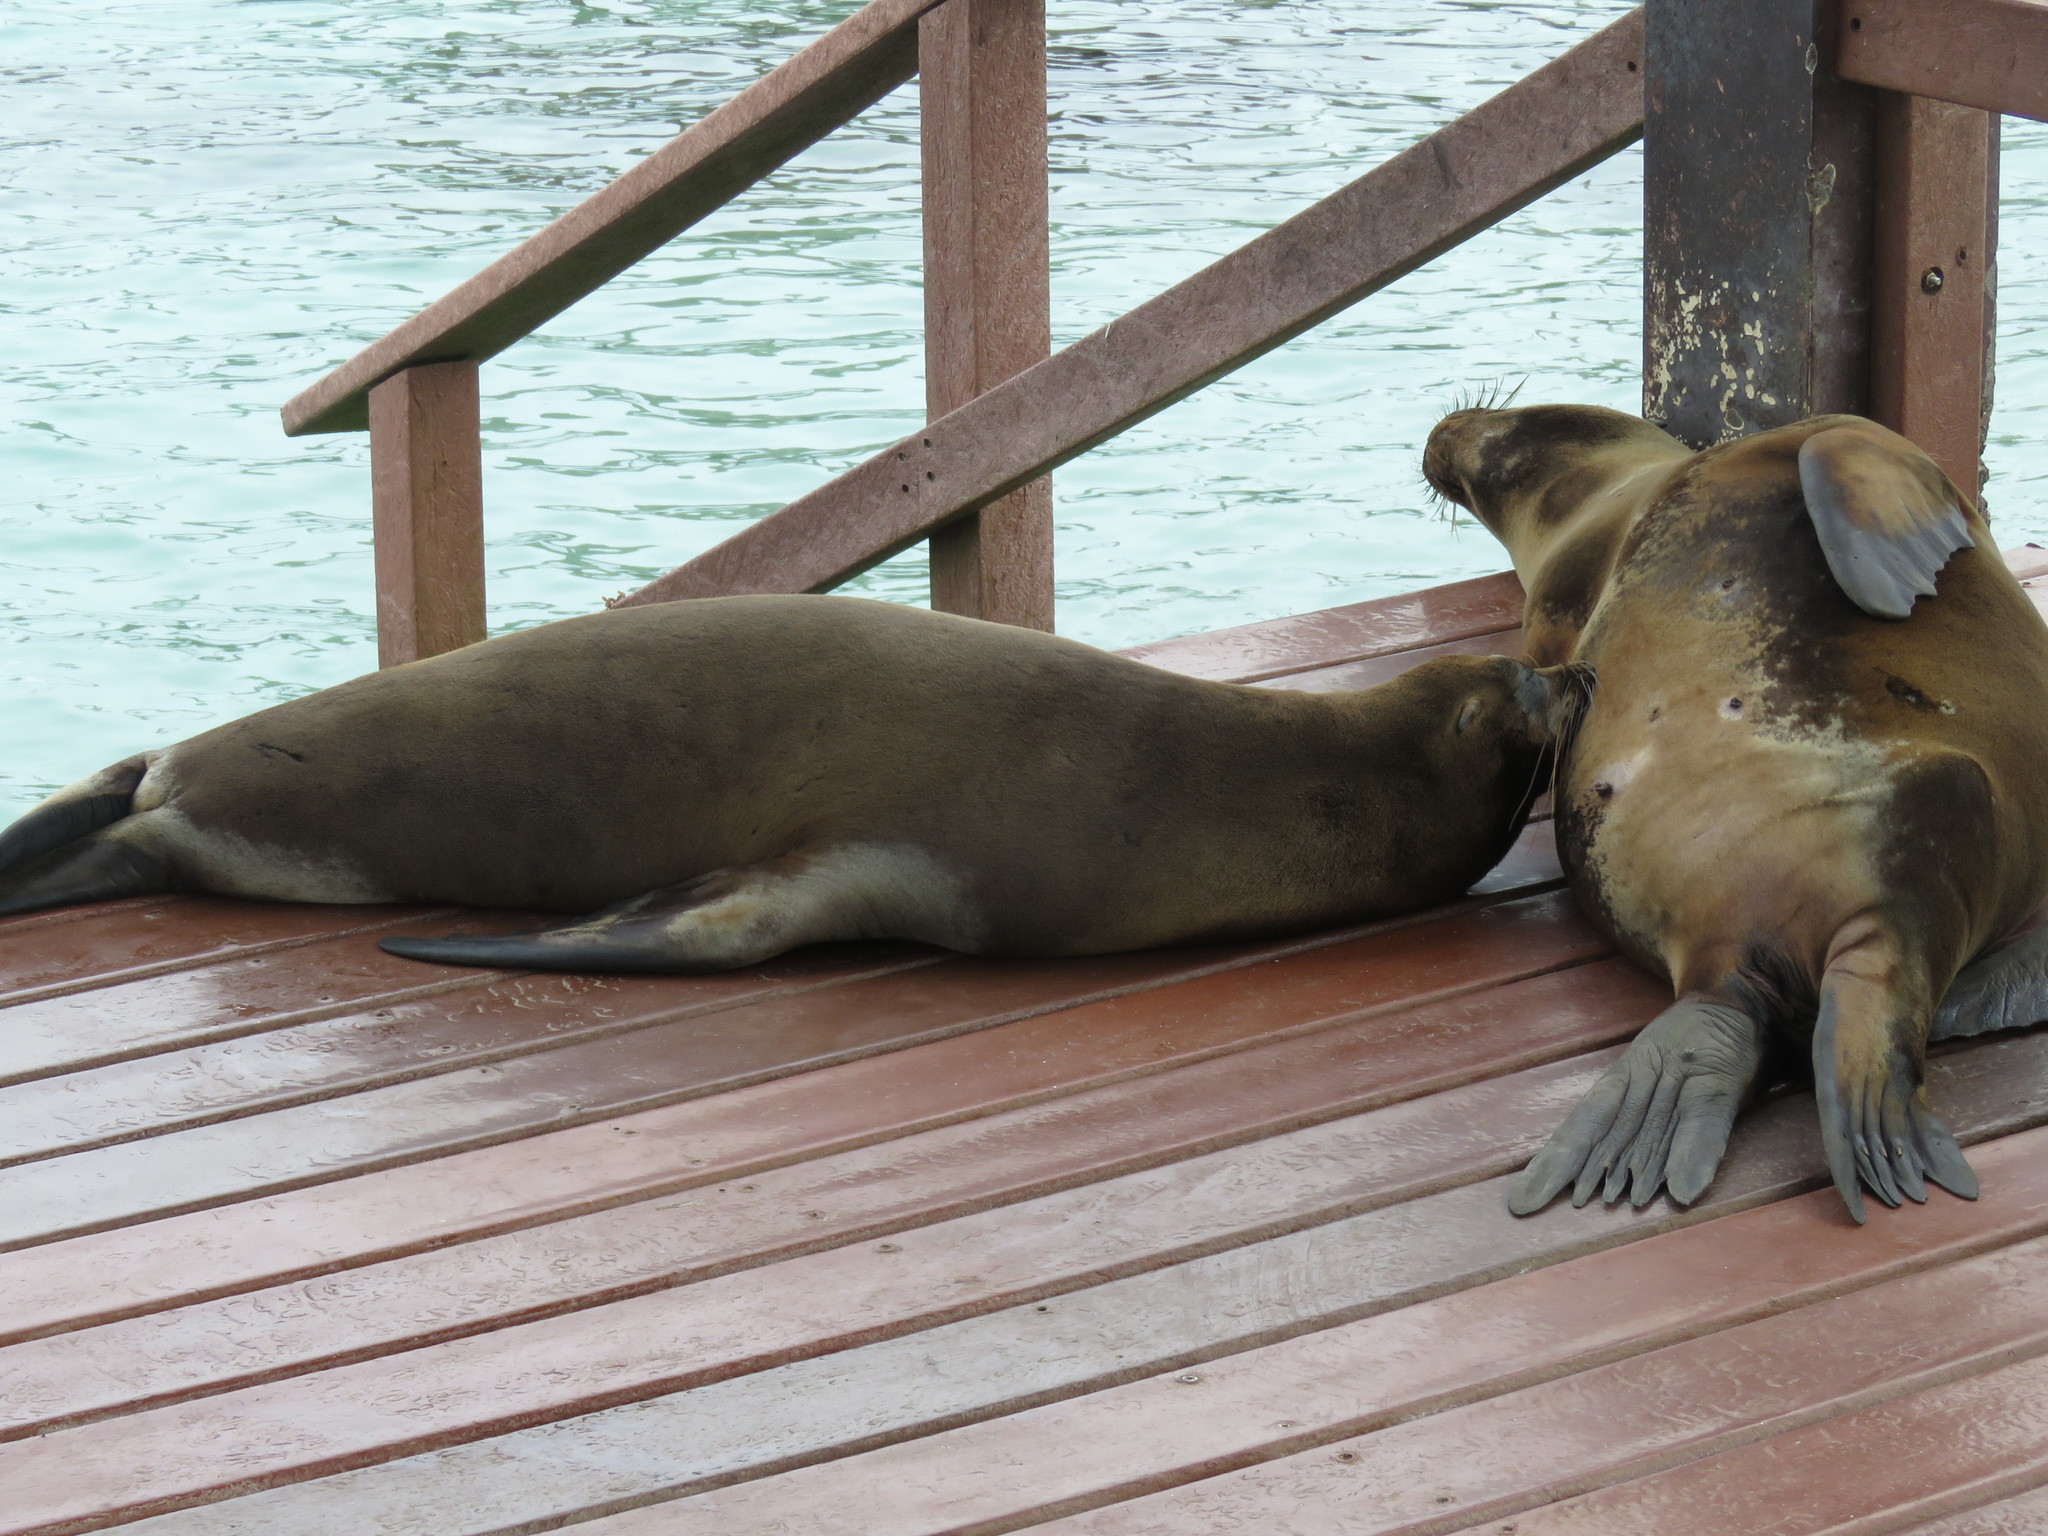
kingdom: Animalia
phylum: Chordata
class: Mammalia
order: Carnivora
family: Otariidae
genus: Zalophus
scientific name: Zalophus wollebaeki
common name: Galapagos sea lion
